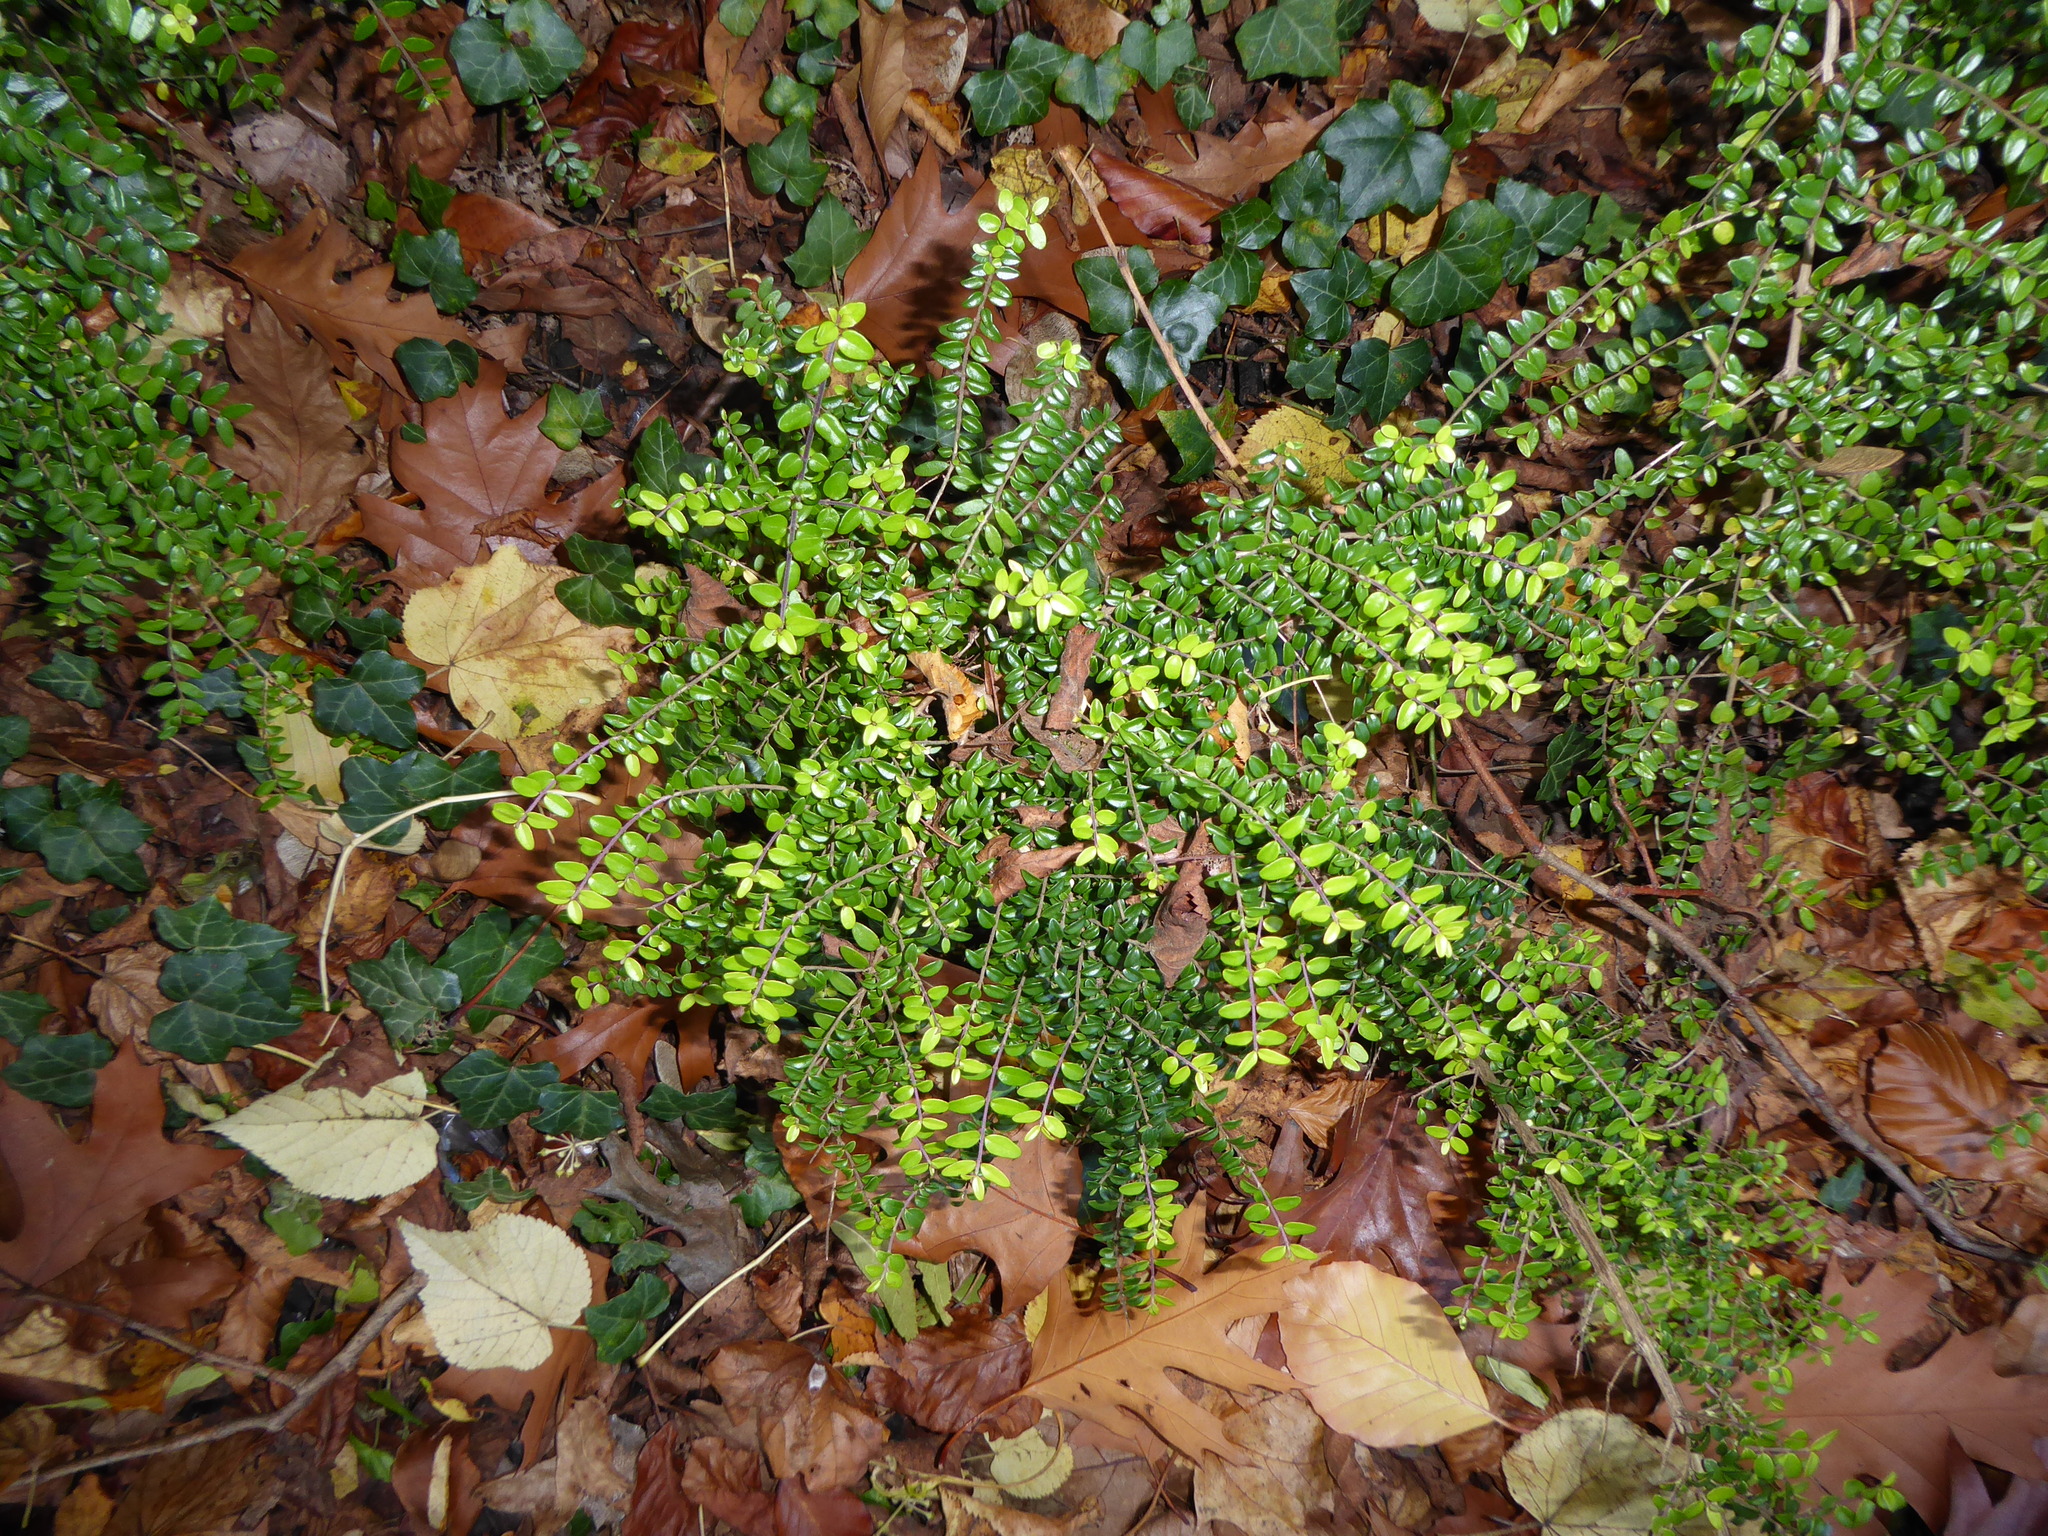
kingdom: Plantae
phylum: Tracheophyta
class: Magnoliopsida
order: Dipsacales
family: Caprifoliaceae
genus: Lonicera
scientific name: Lonicera ligustrina
